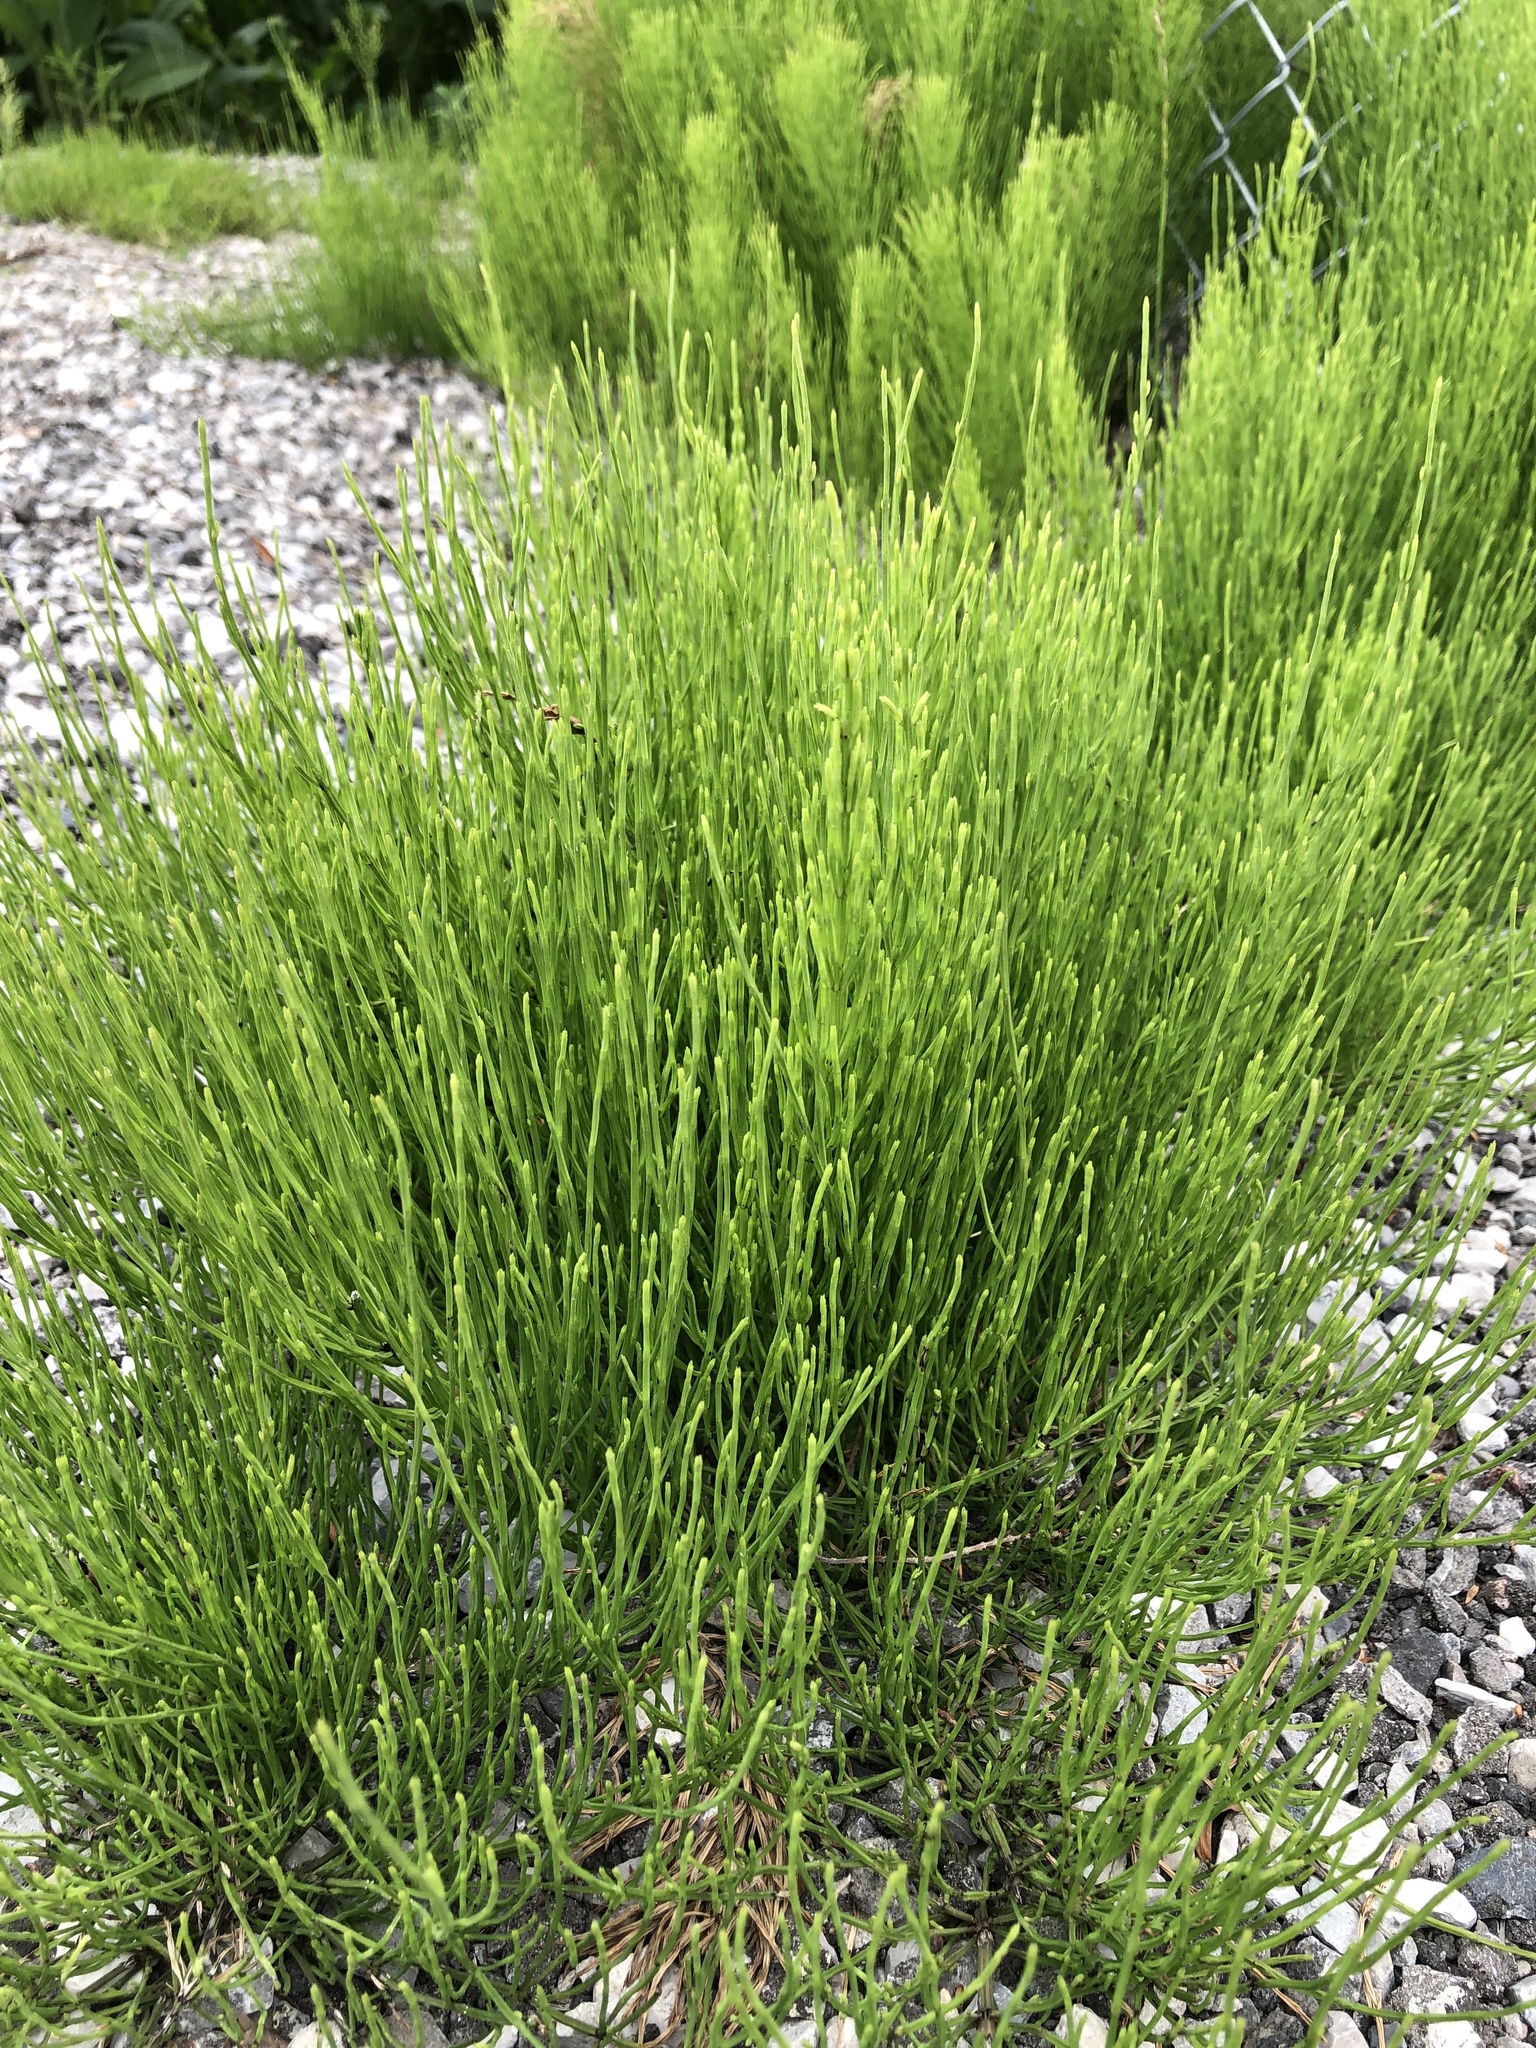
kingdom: Plantae
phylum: Tracheophyta
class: Polypodiopsida
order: Equisetales
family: Equisetaceae
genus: Equisetum
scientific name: Equisetum arvense
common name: Field horsetail
